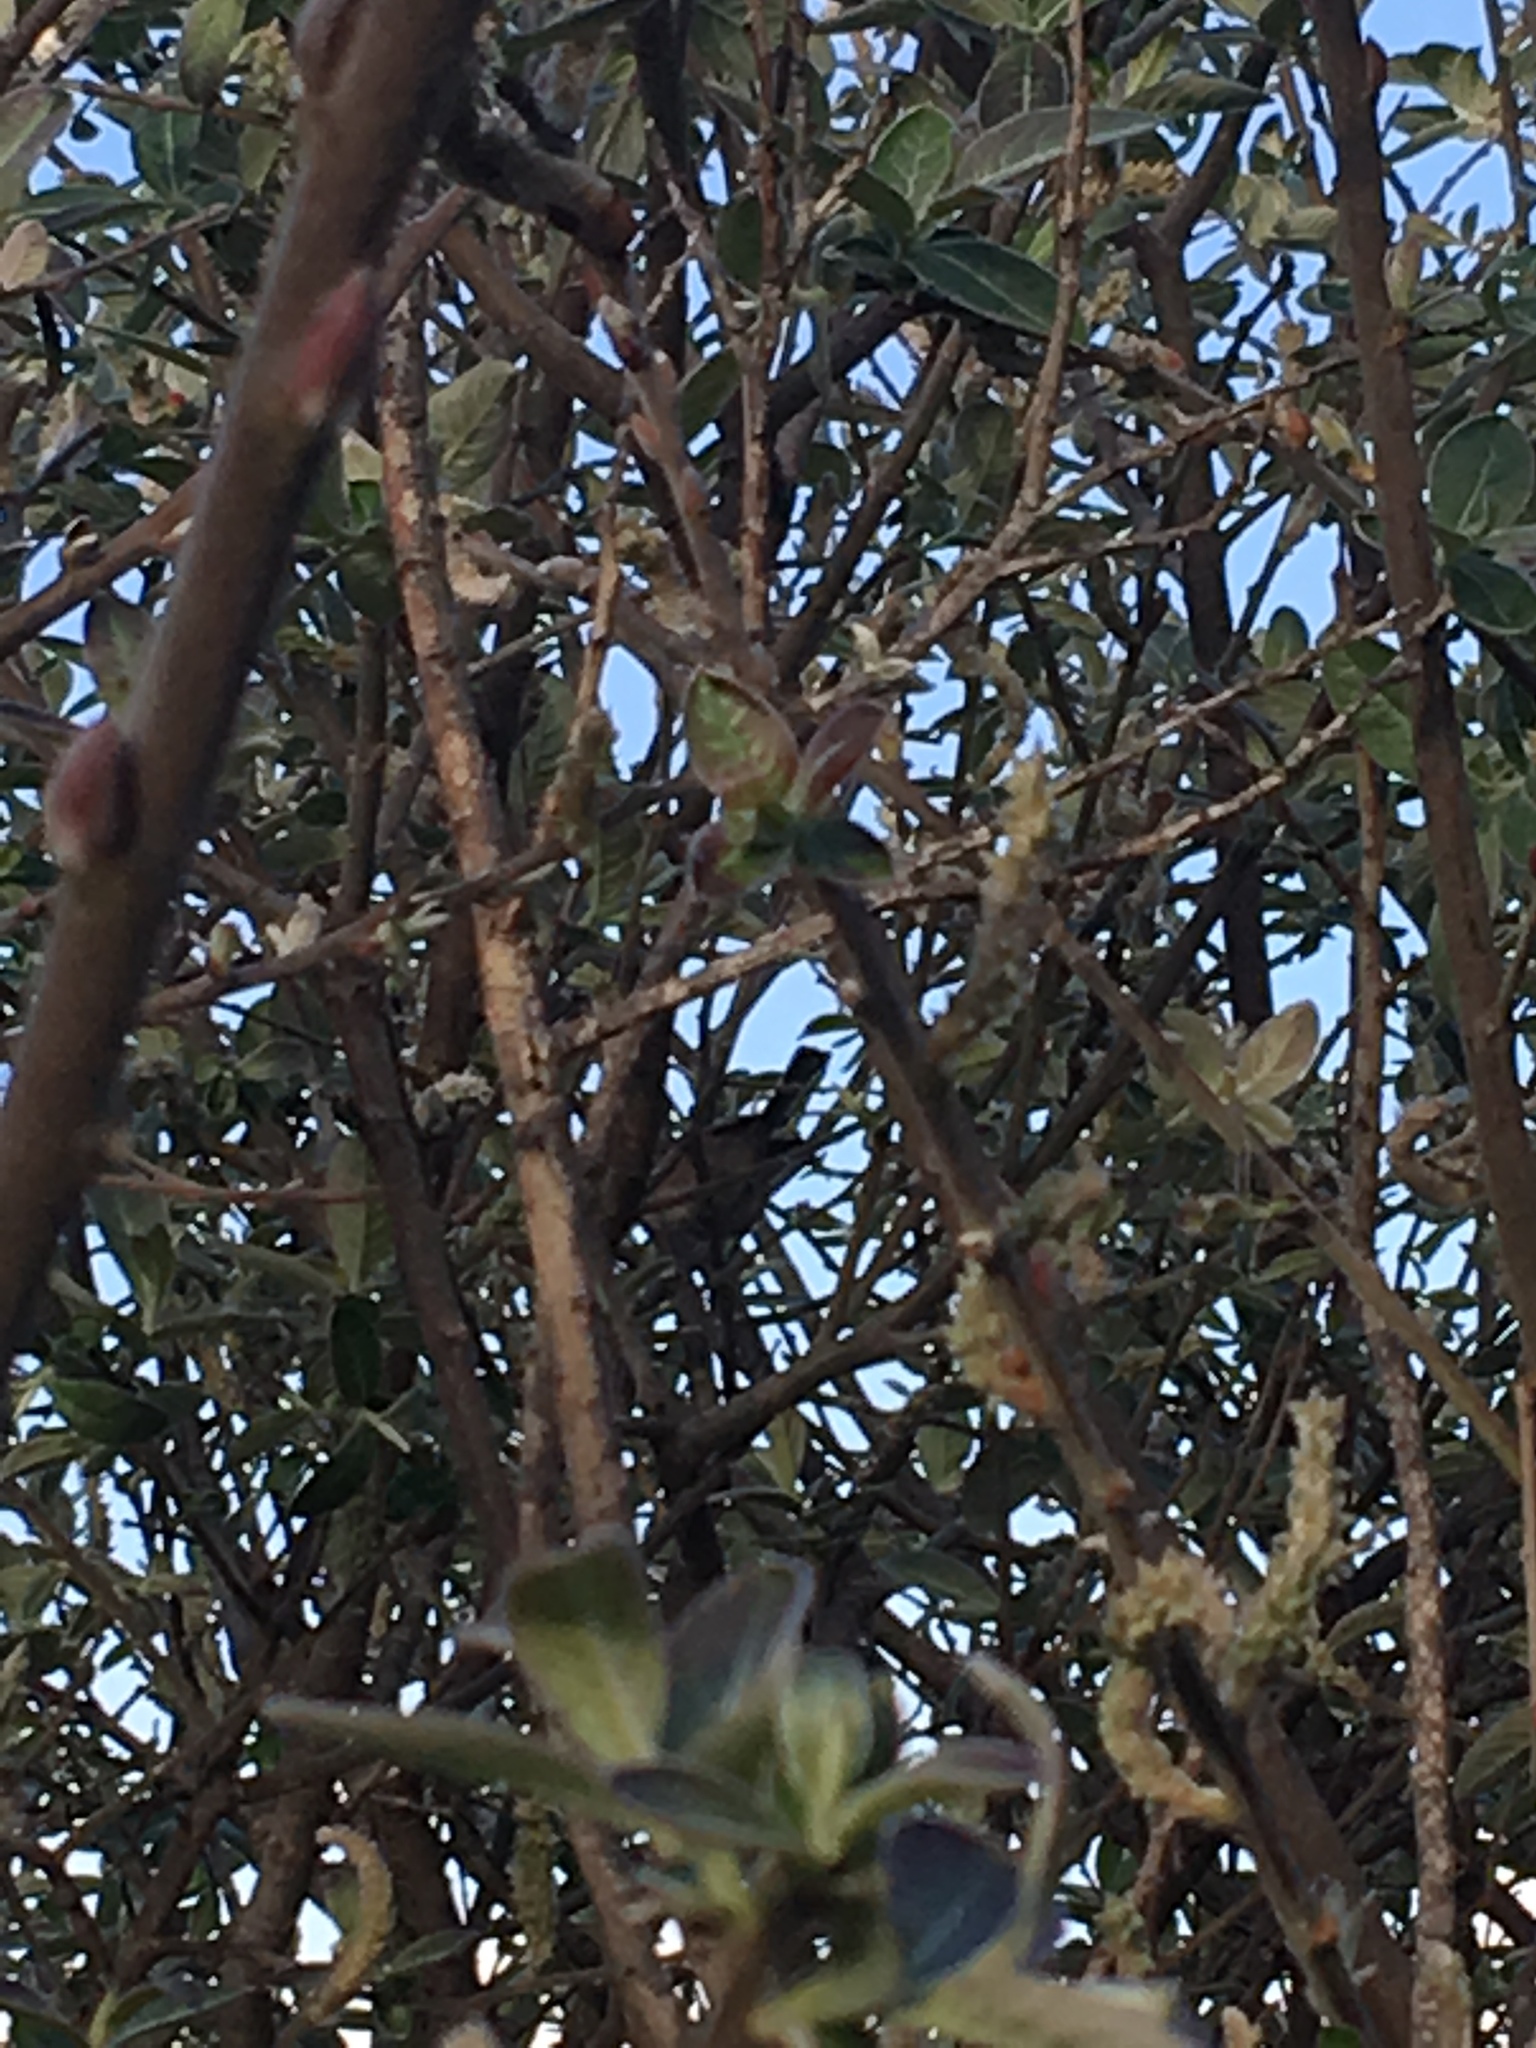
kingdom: Animalia
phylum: Chordata
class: Aves
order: Passeriformes
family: Aegithalidae
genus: Psaltriparus
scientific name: Psaltriparus minimus
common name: American bushtit
